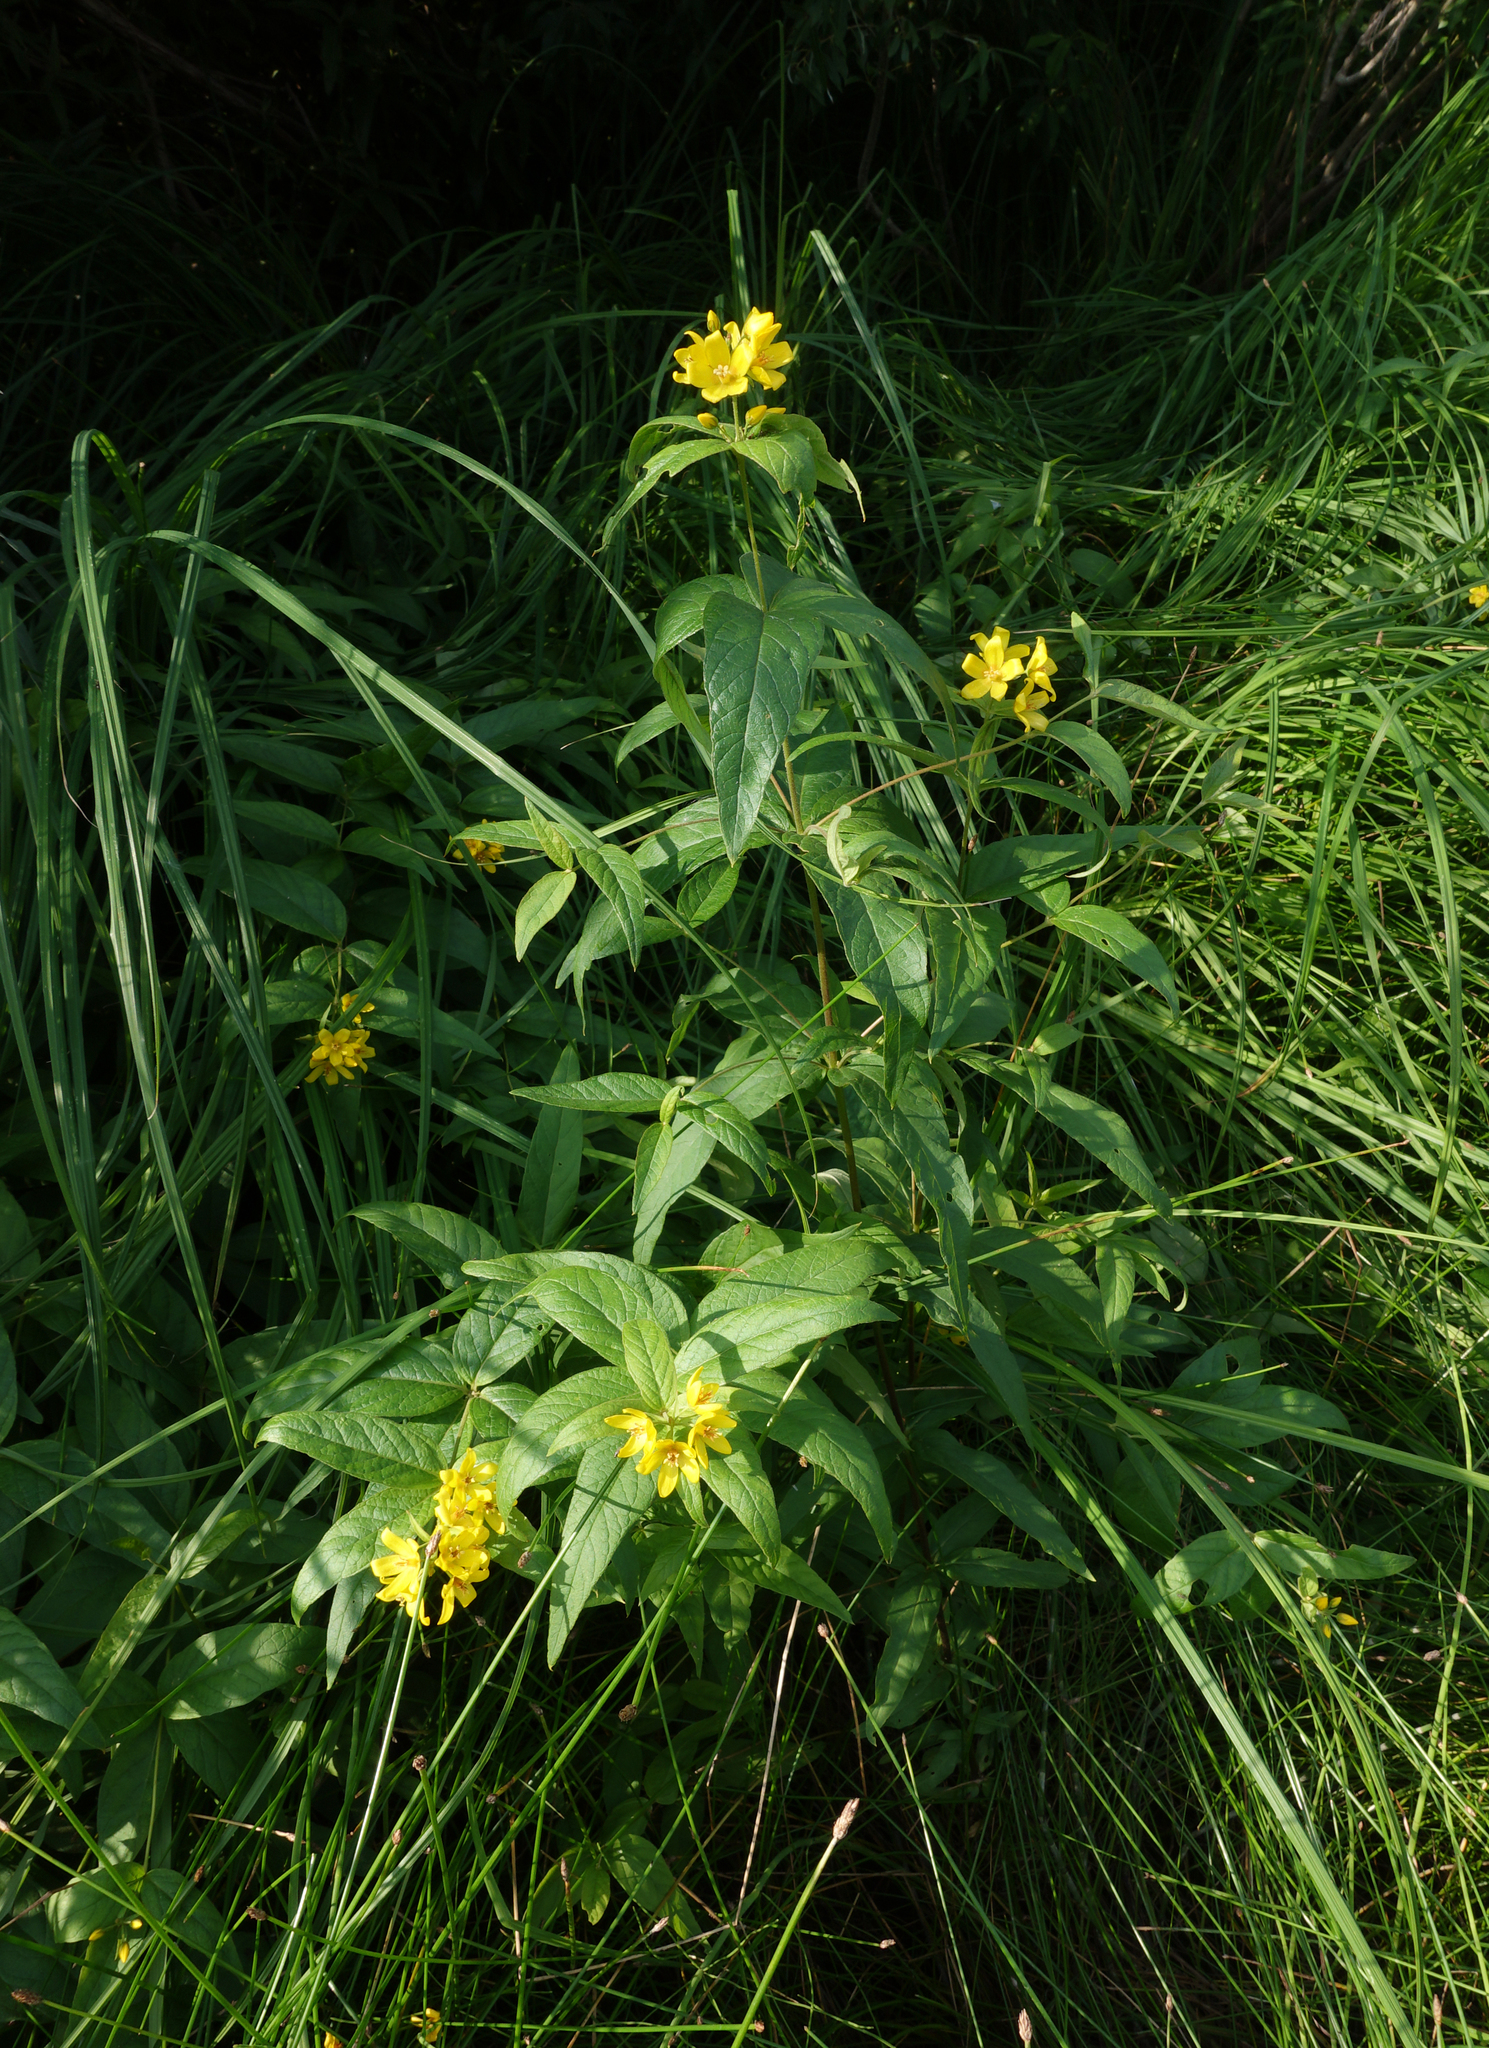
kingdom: Plantae
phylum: Tracheophyta
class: Magnoliopsida
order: Ericales
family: Primulaceae
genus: Lysimachia
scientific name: Lysimachia vulgaris
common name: Yellow loosestrife
